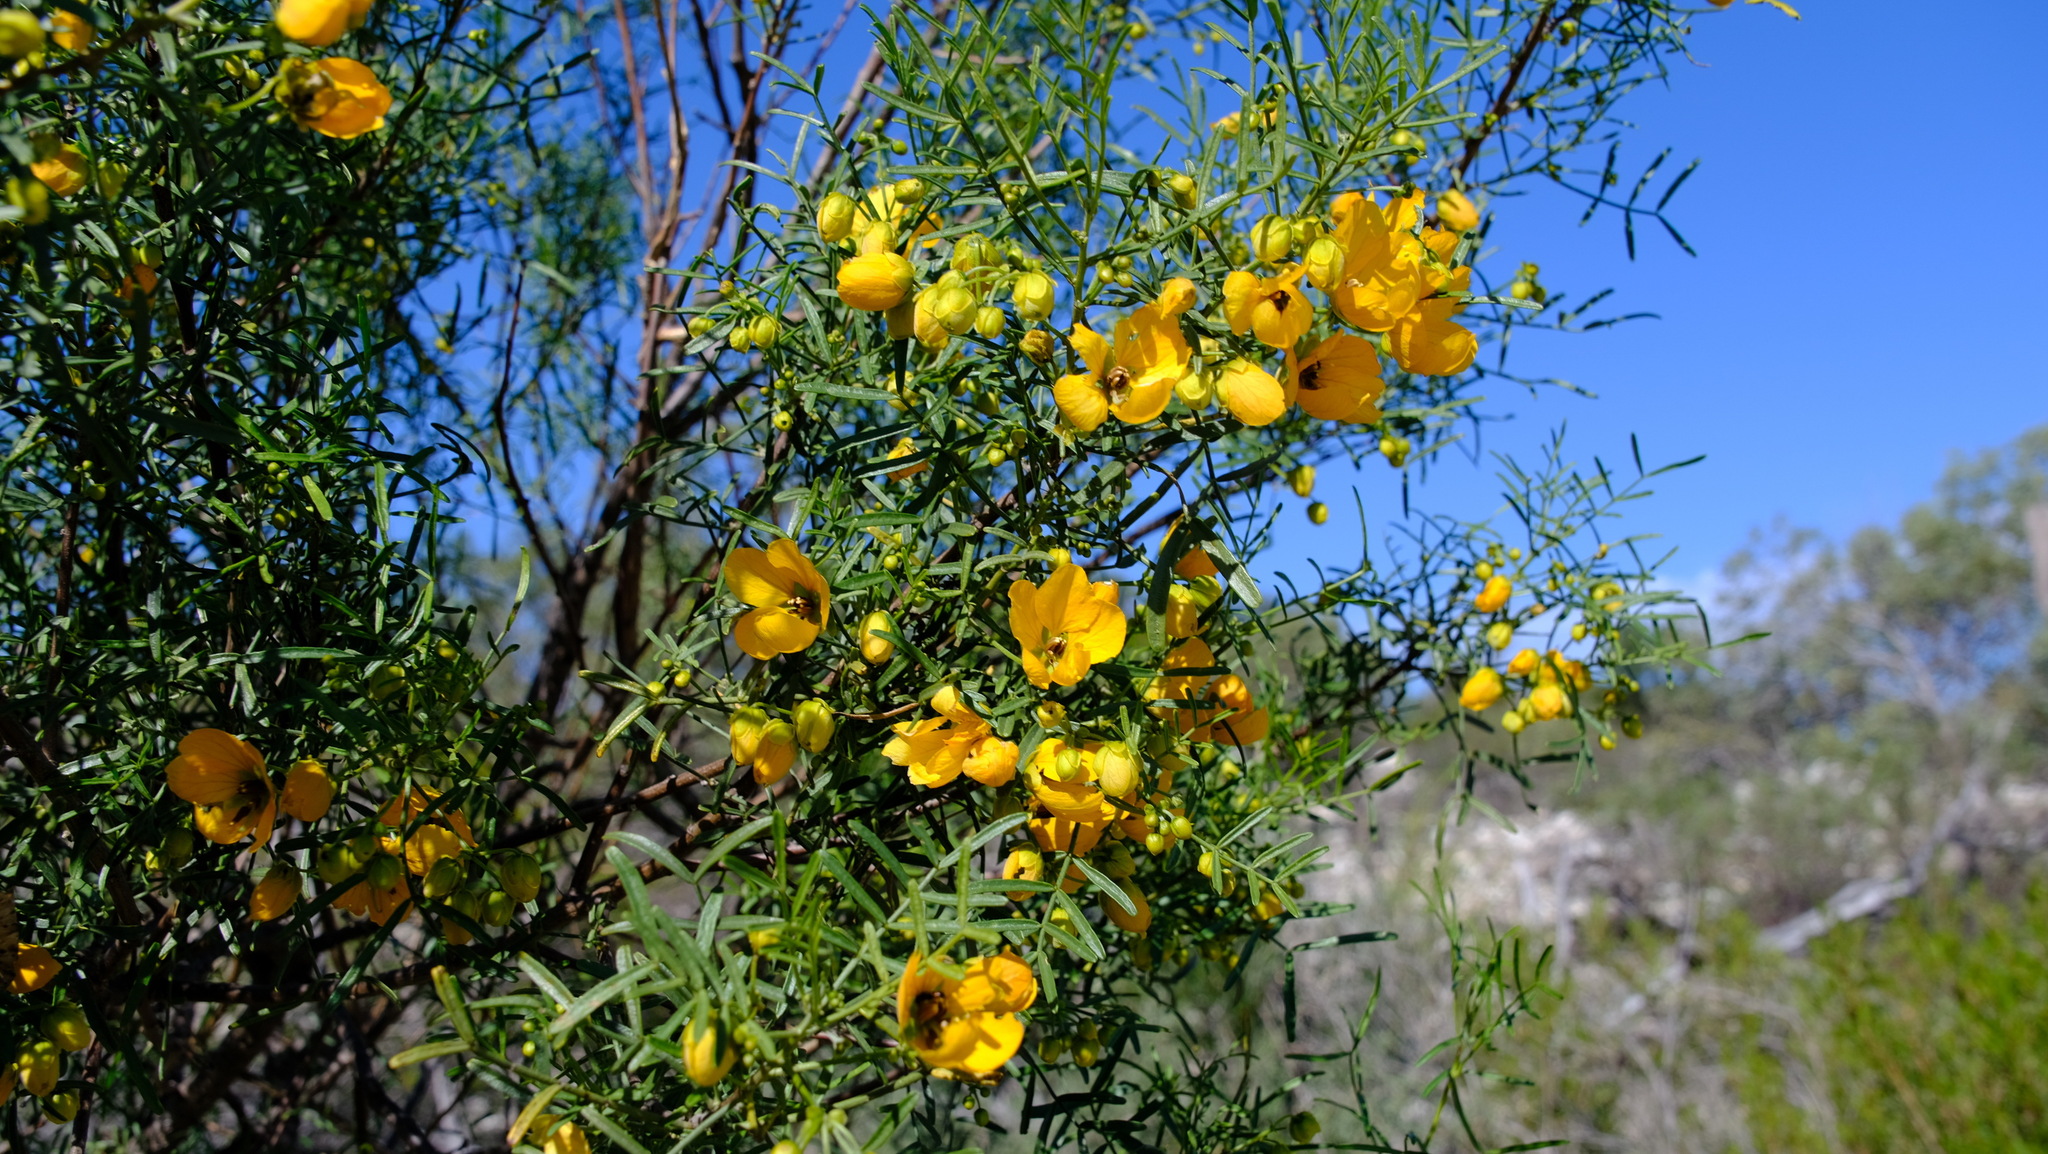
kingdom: Plantae
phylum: Tracheophyta
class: Magnoliopsida
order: Fabales
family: Fabaceae
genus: Senna
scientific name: Senna glutinosa
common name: Green acacia
